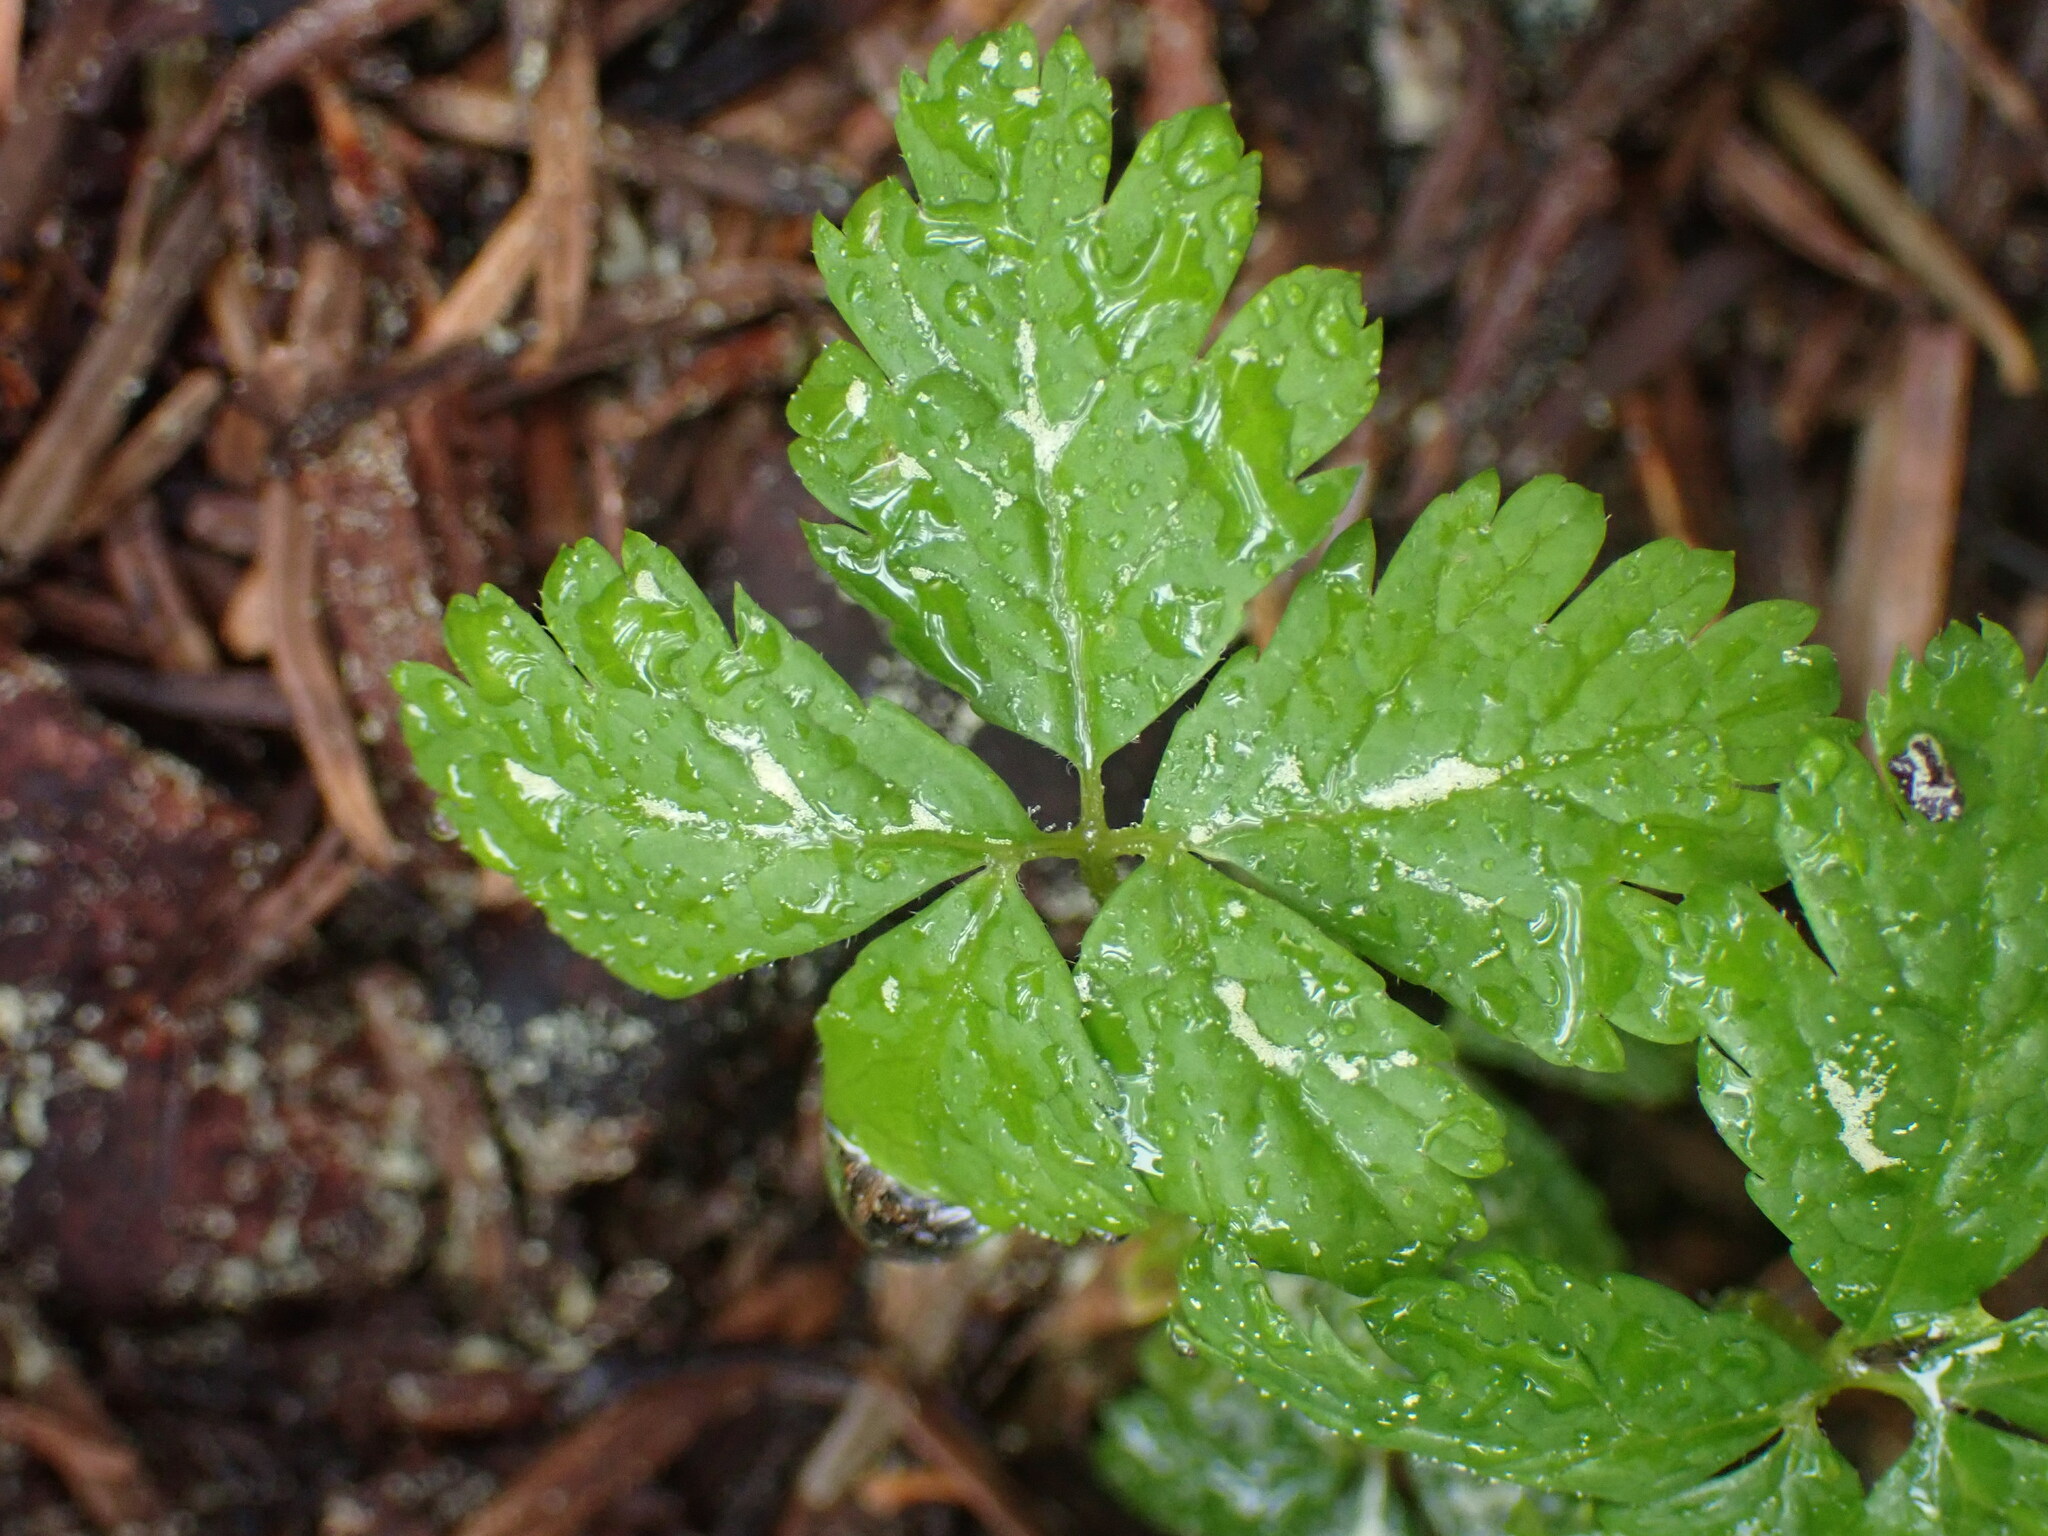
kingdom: Plantae
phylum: Tracheophyta
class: Magnoliopsida
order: Rosales
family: Rosaceae
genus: Rubus
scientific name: Rubus pedatus
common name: Creeping raspberry
